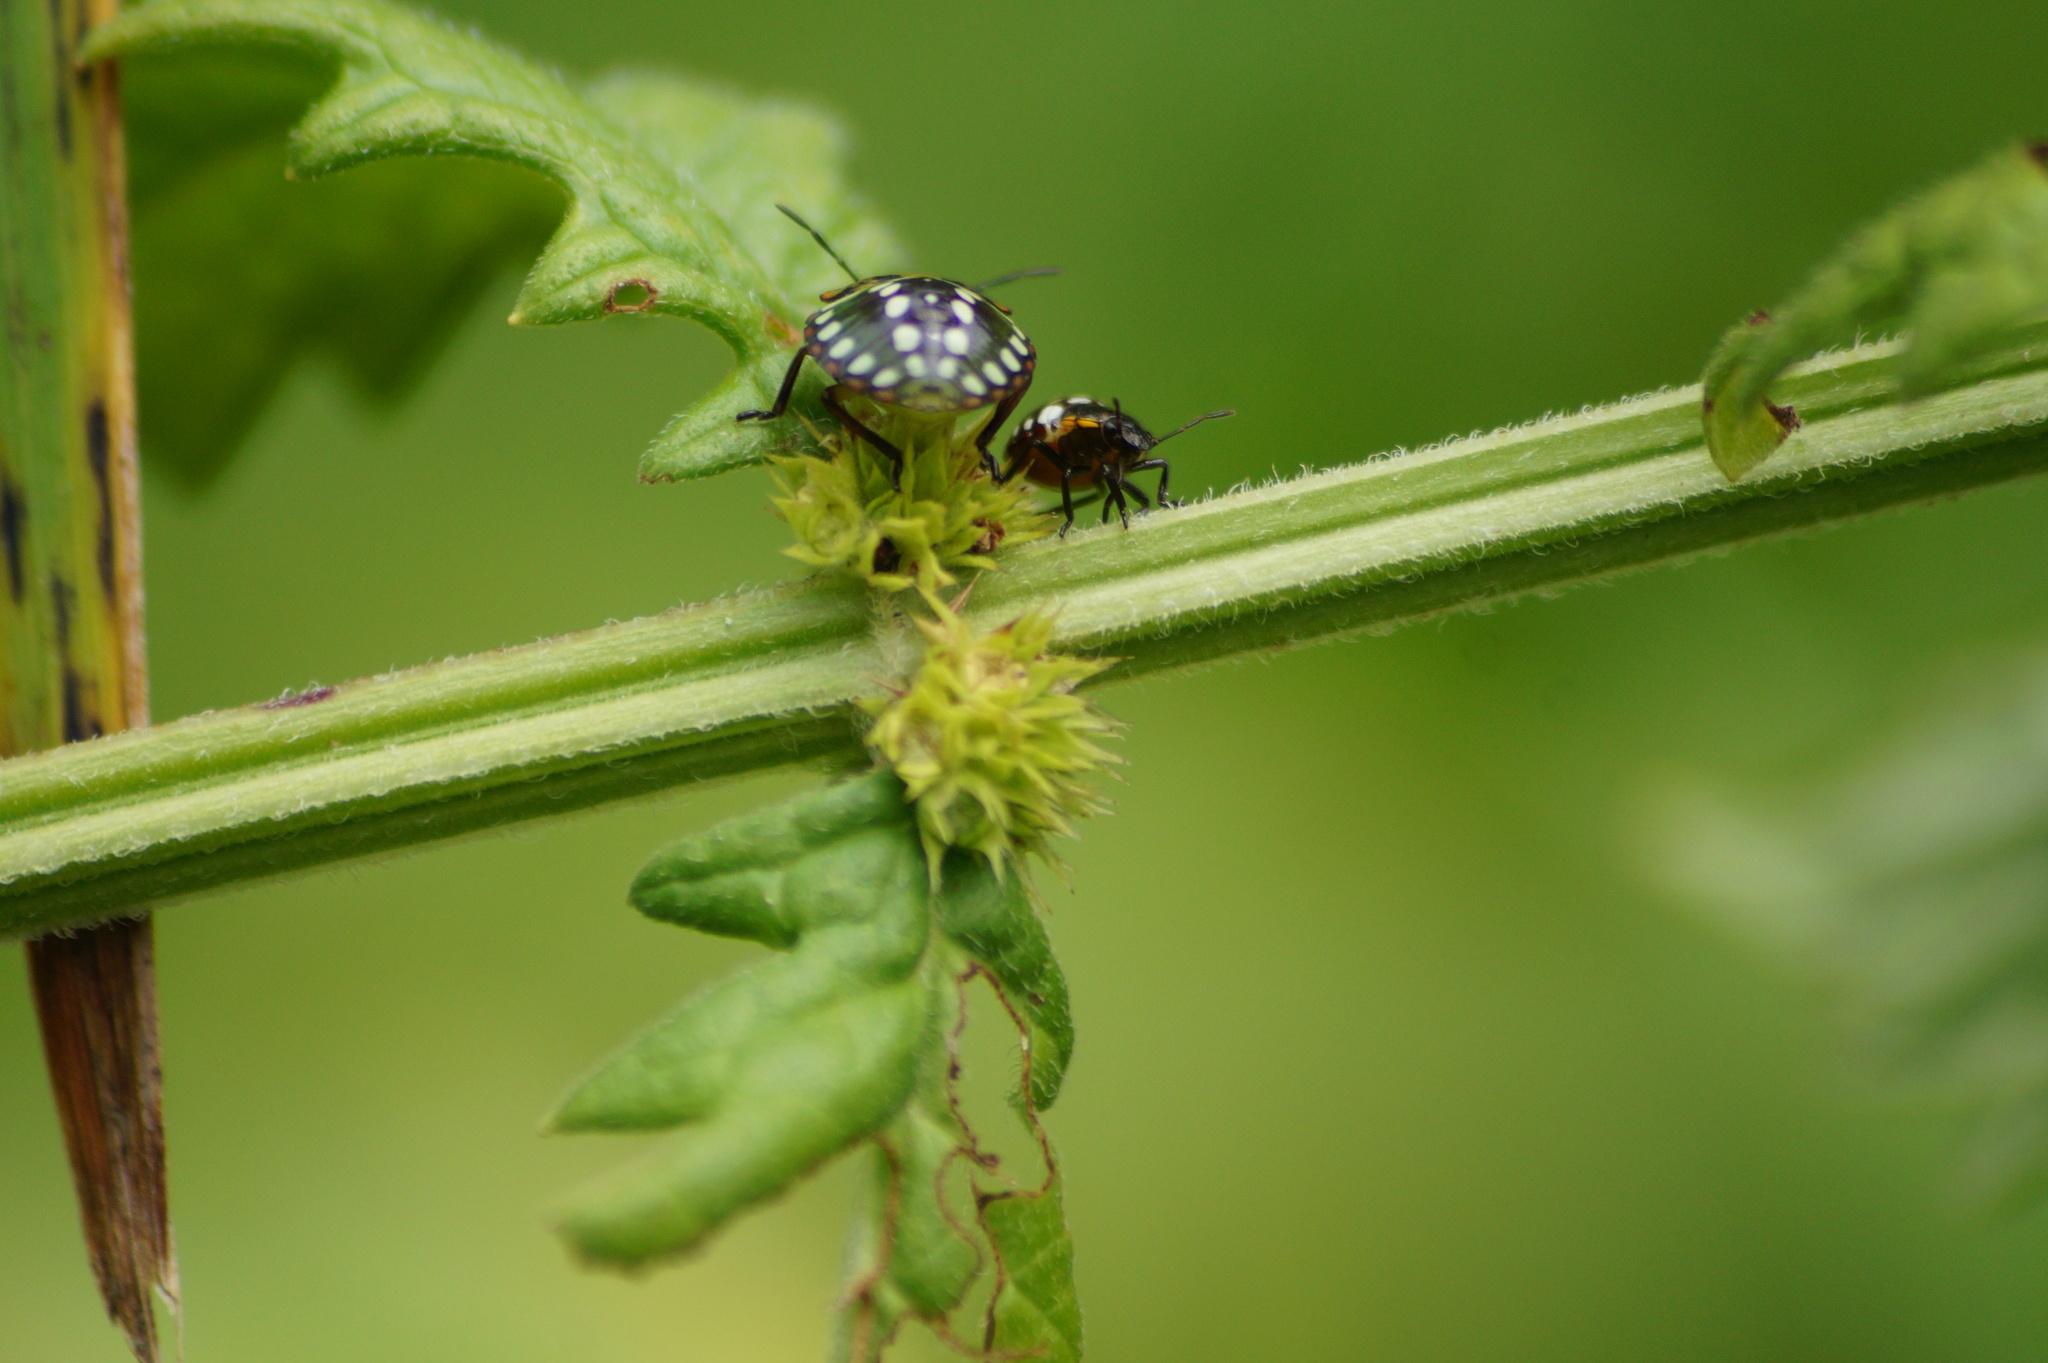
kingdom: Animalia
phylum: Arthropoda
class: Insecta
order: Hemiptera
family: Pentatomidae
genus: Nezara
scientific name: Nezara viridula
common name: Southern green stink bug
